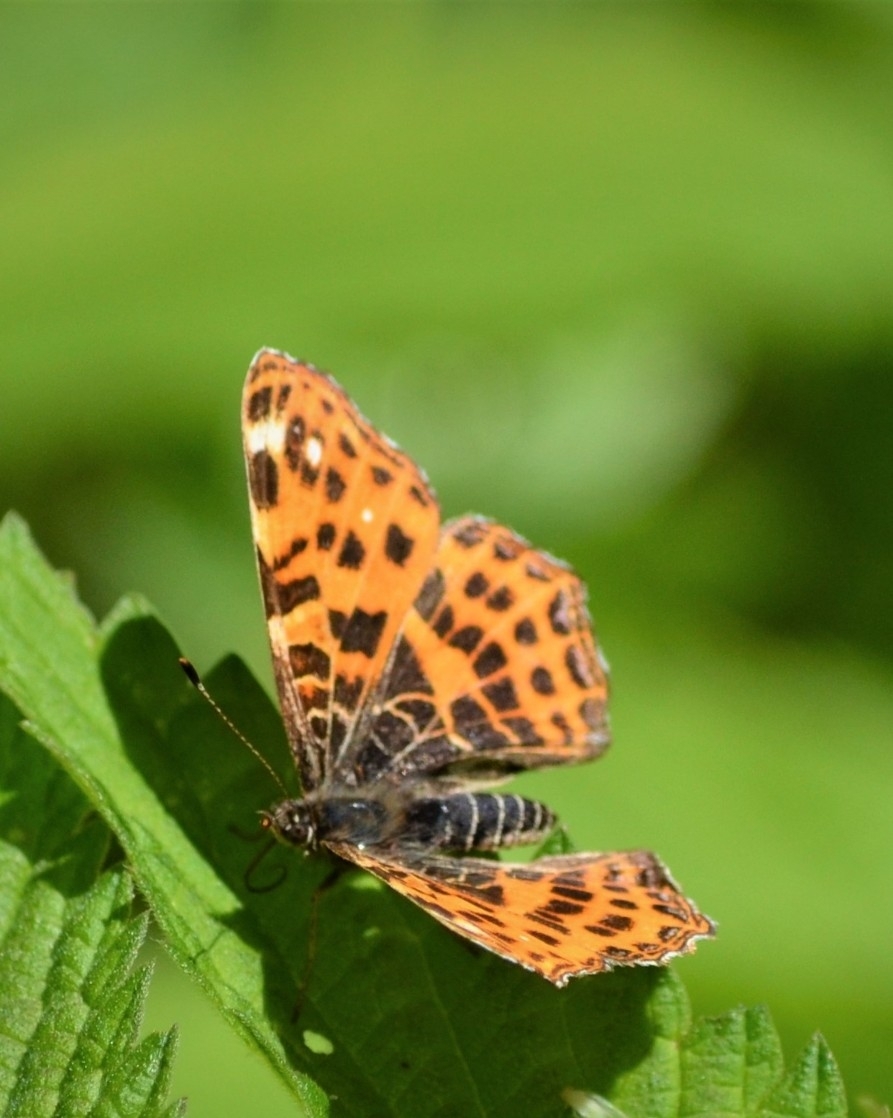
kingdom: Animalia
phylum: Arthropoda
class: Insecta
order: Lepidoptera
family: Nymphalidae
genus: Araschnia
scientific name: Araschnia levana
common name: Map butterfly
